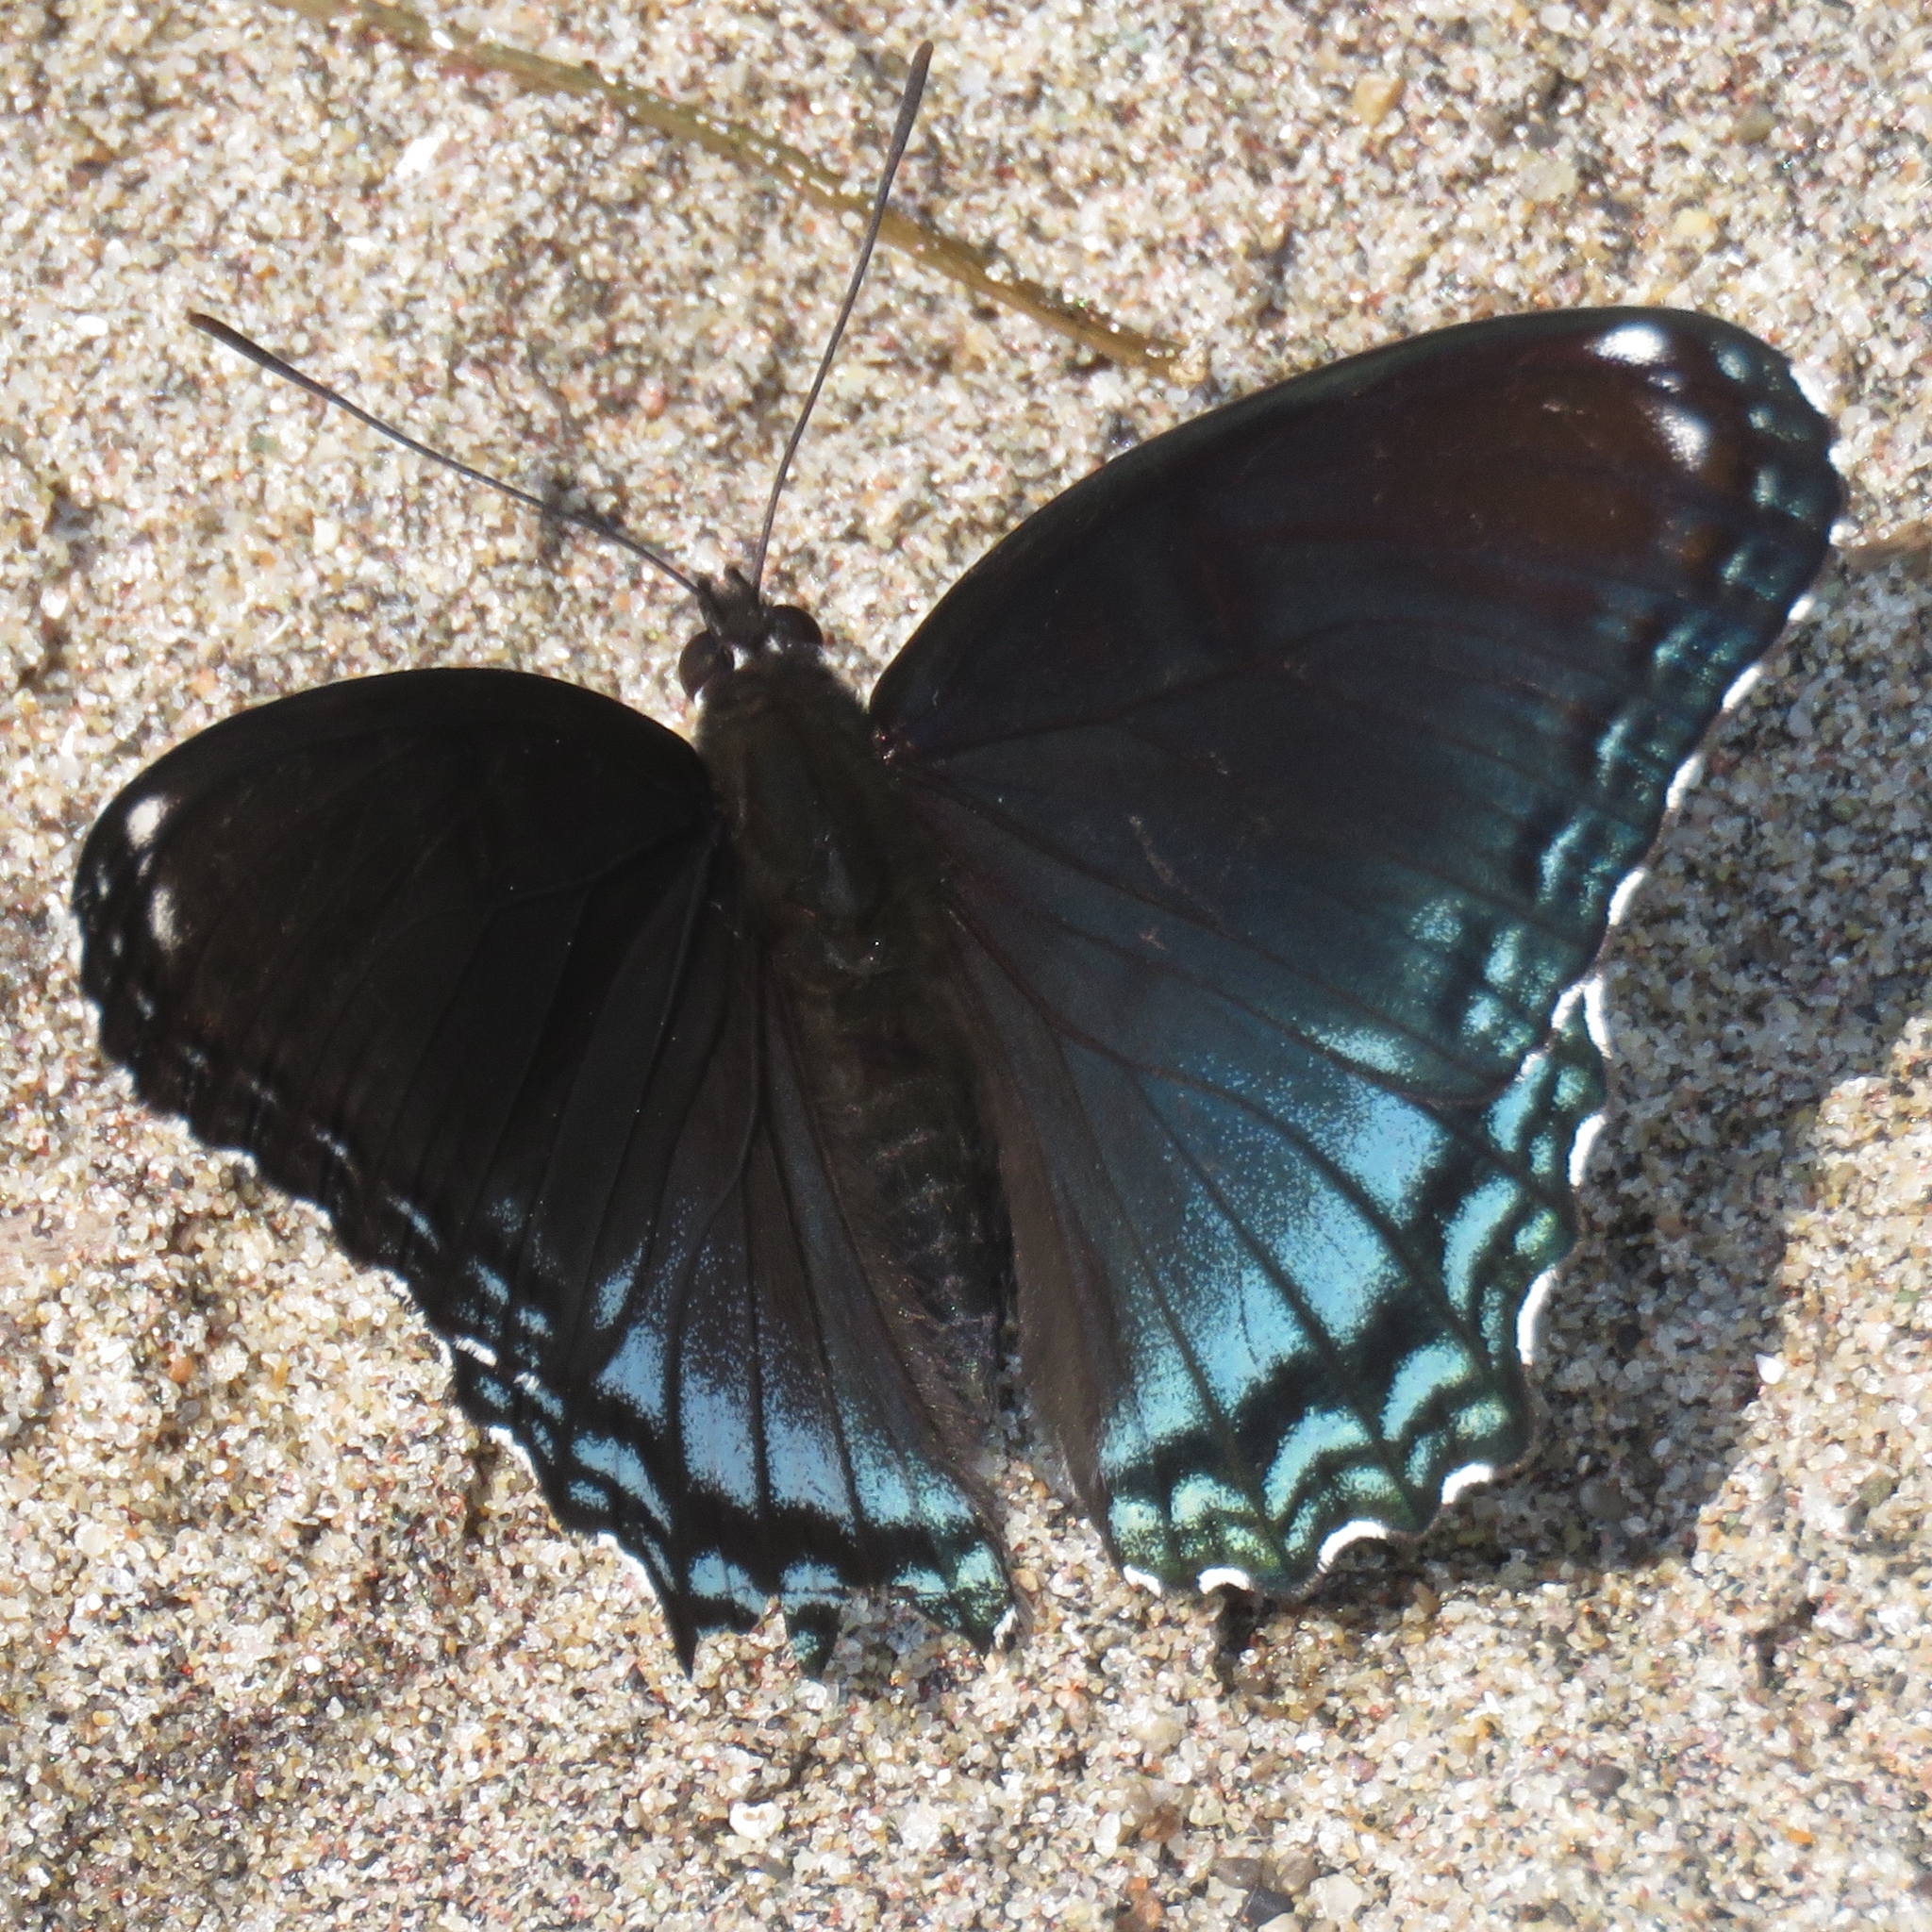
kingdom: Animalia
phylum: Arthropoda
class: Insecta
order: Lepidoptera
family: Nymphalidae
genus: Limenitis
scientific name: Limenitis astyanax
